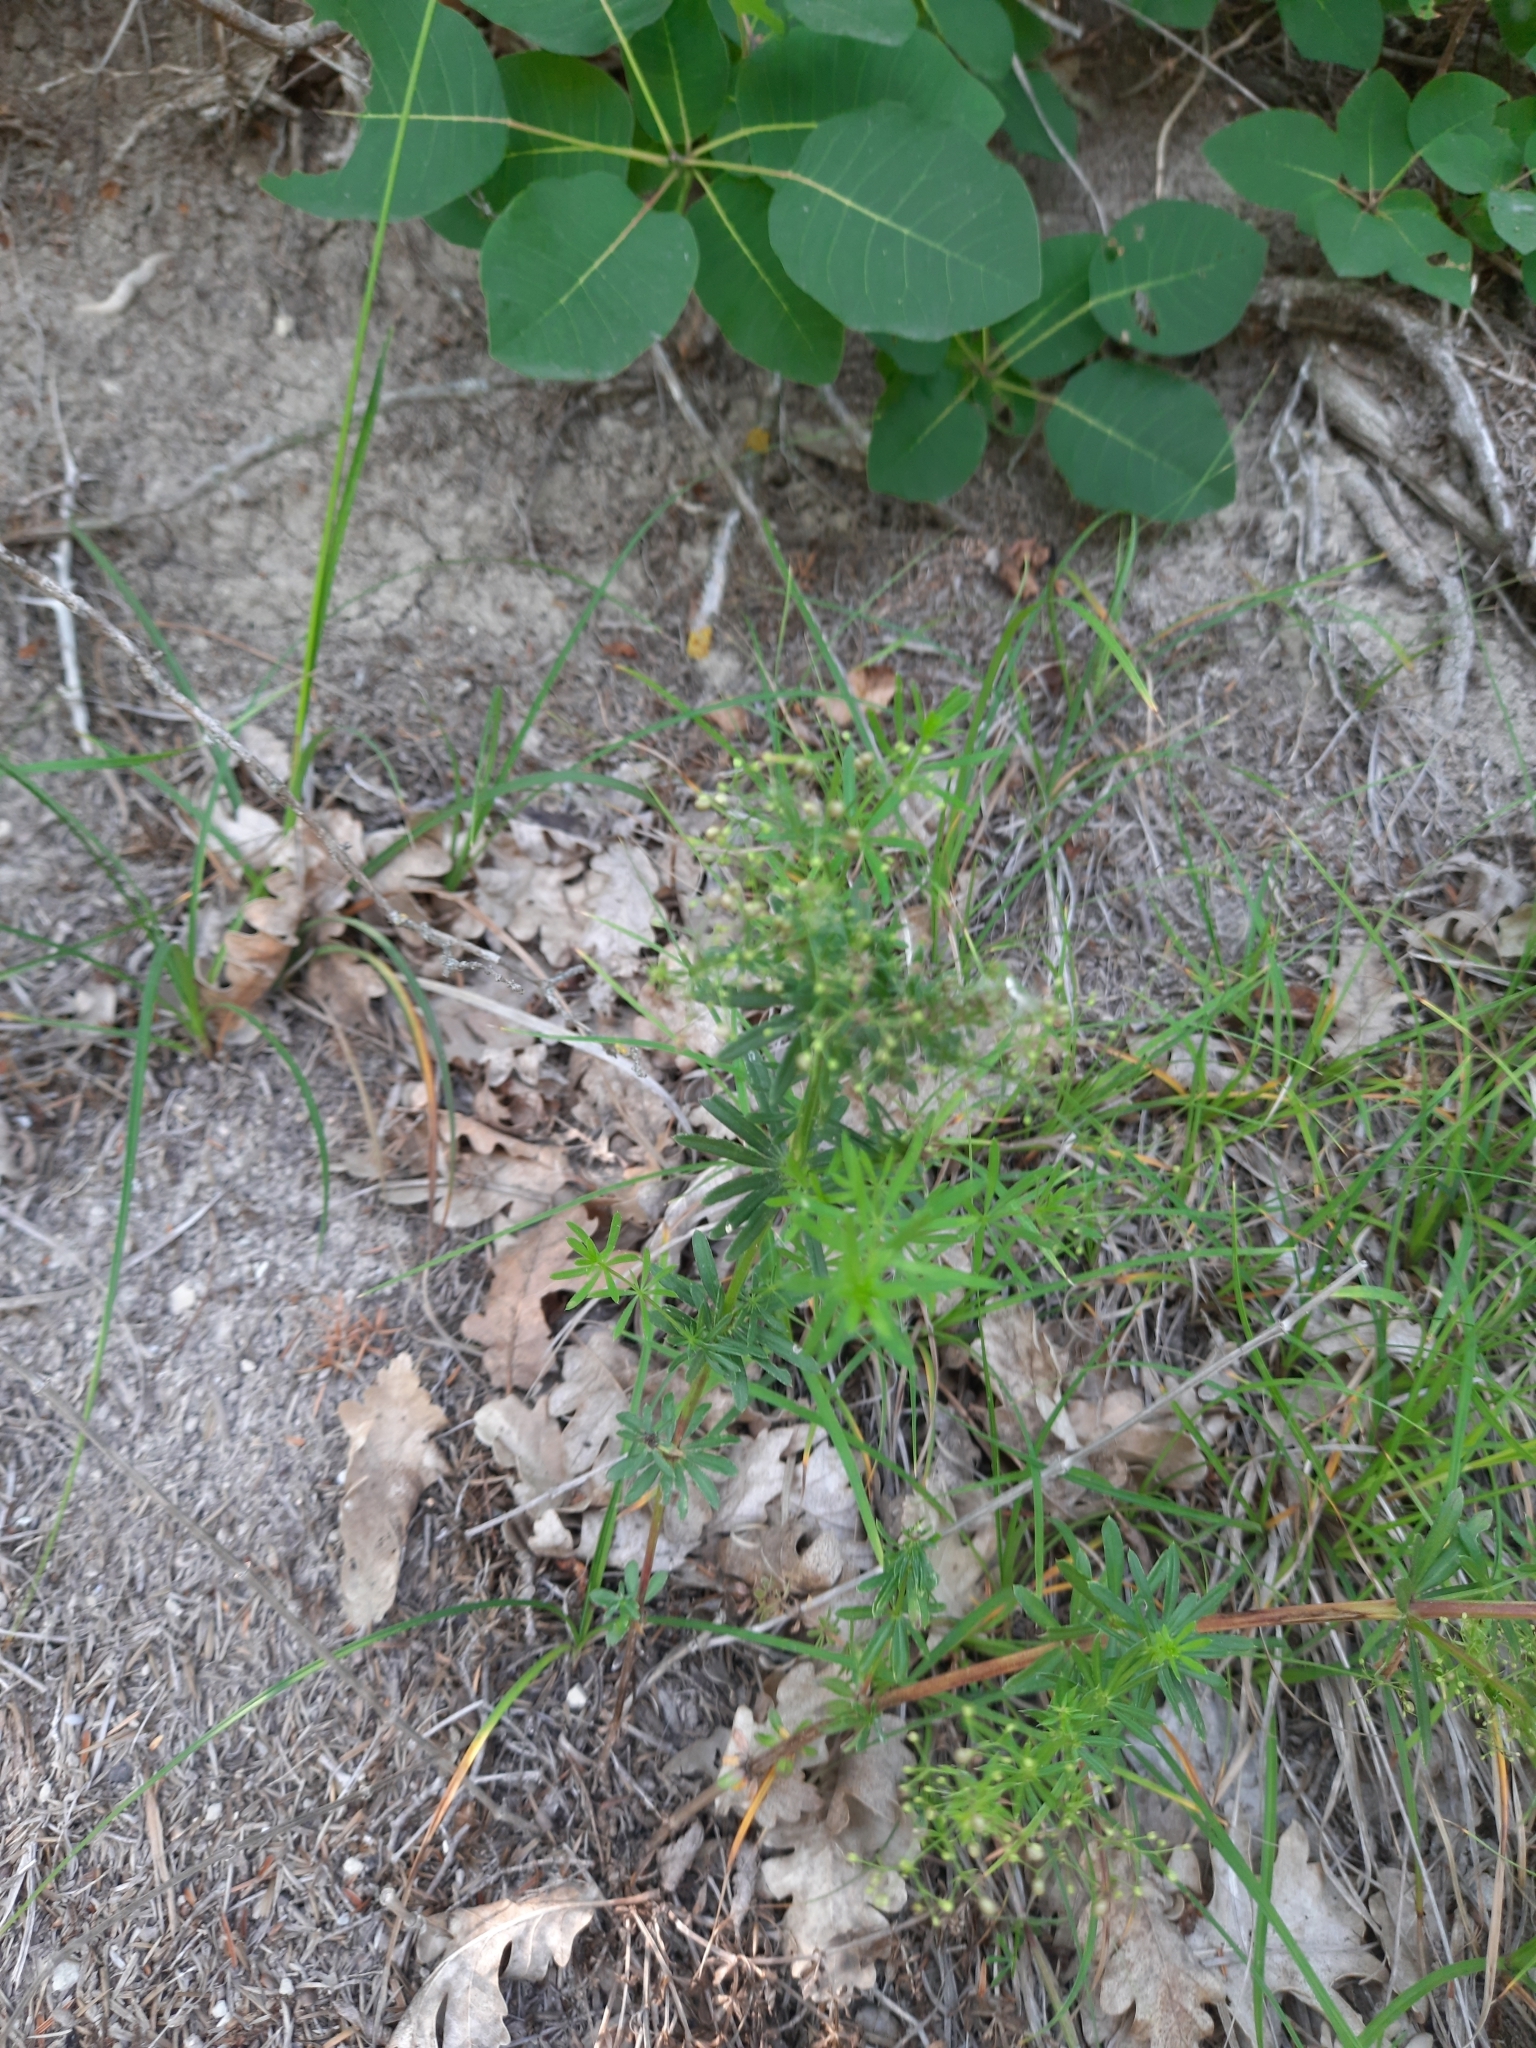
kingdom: Plantae
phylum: Tracheophyta
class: Magnoliopsida
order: Gentianales
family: Rubiaceae
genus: Galium
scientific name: Galium verum
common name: Lady's bedstraw
